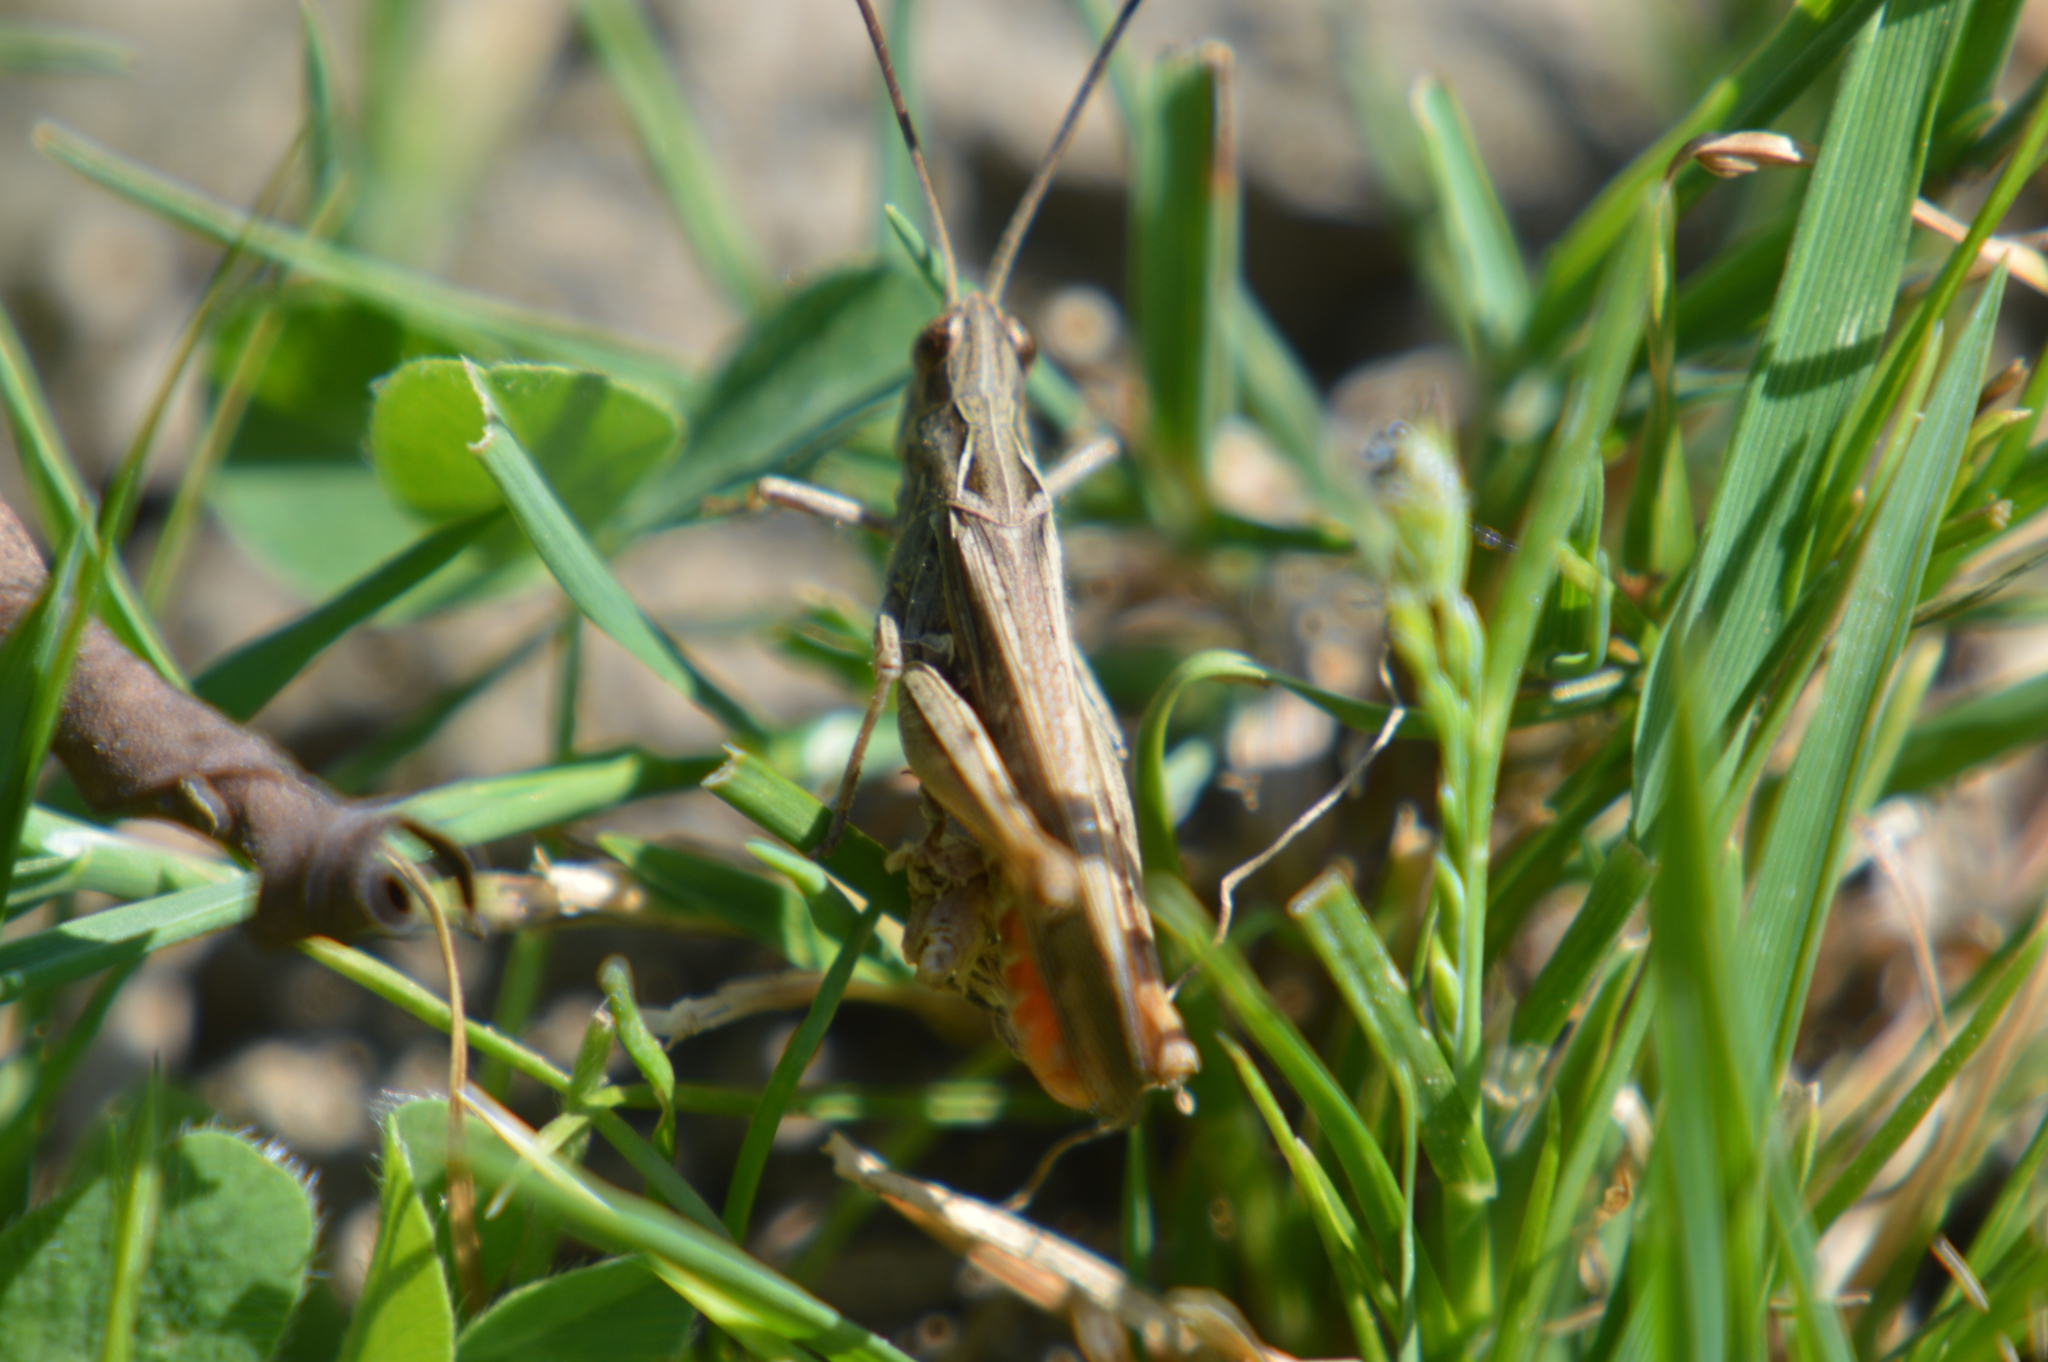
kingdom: Animalia
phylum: Arthropoda
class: Insecta
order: Orthoptera
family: Acrididae
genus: Glyptobothrus
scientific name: Glyptobothrus
